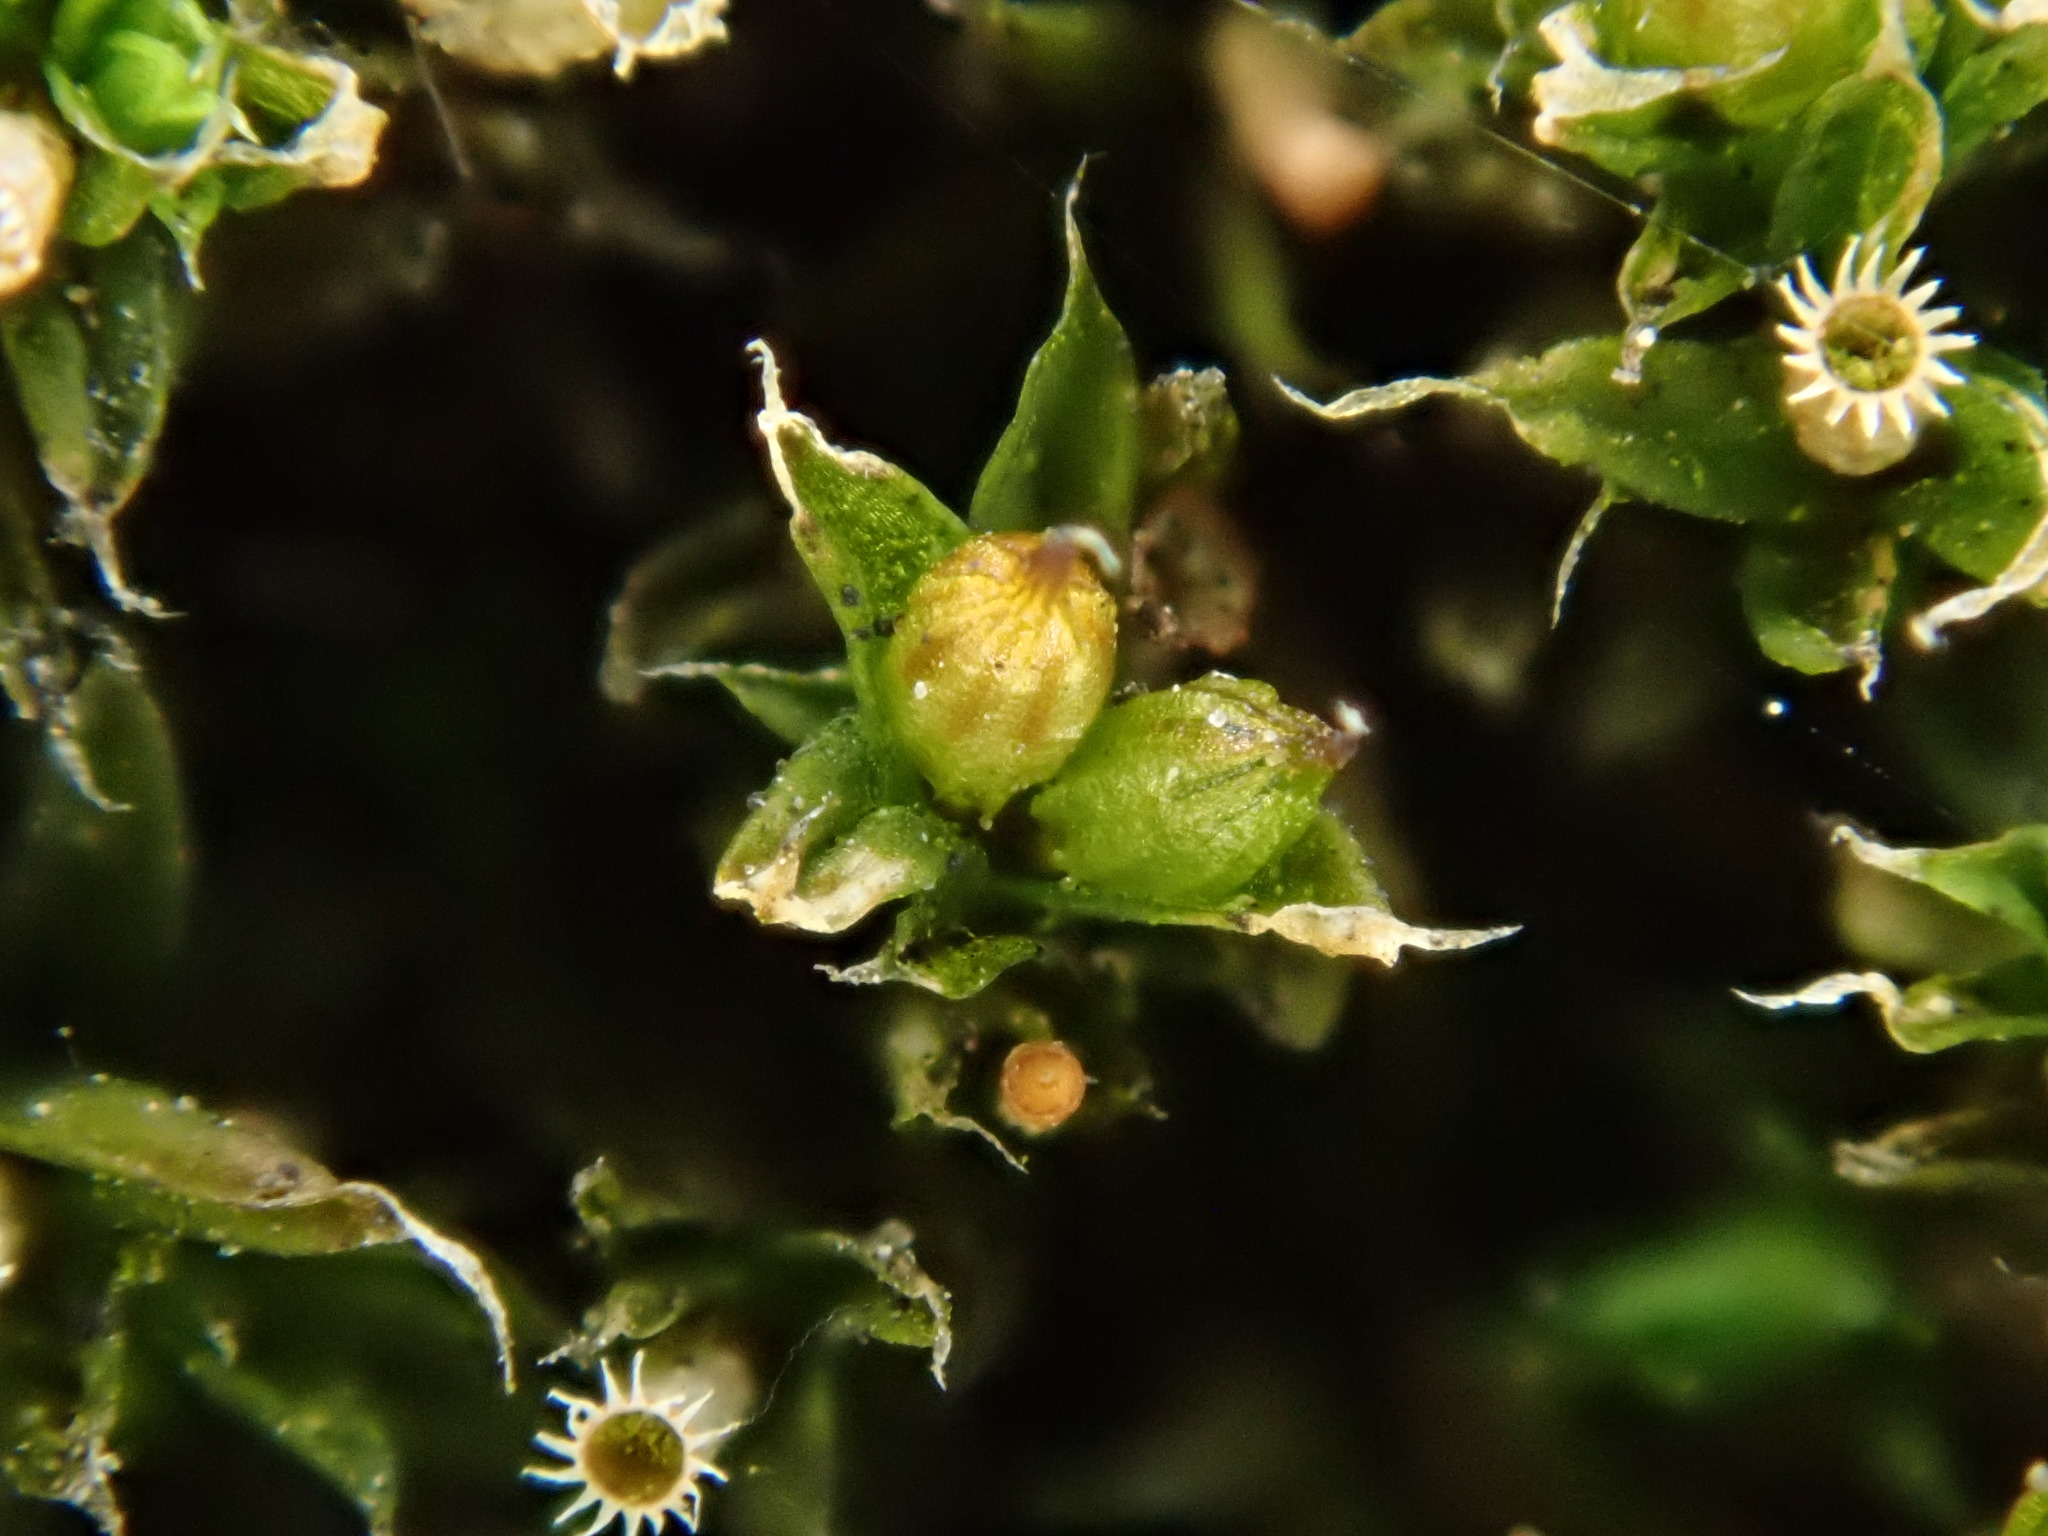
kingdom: Plantae
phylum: Bryophyta
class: Bryopsida
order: Orthotrichales
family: Orthotrichaceae
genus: Orthotrichum
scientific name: Orthotrichum diaphanum
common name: White-tipped bristle-moss
